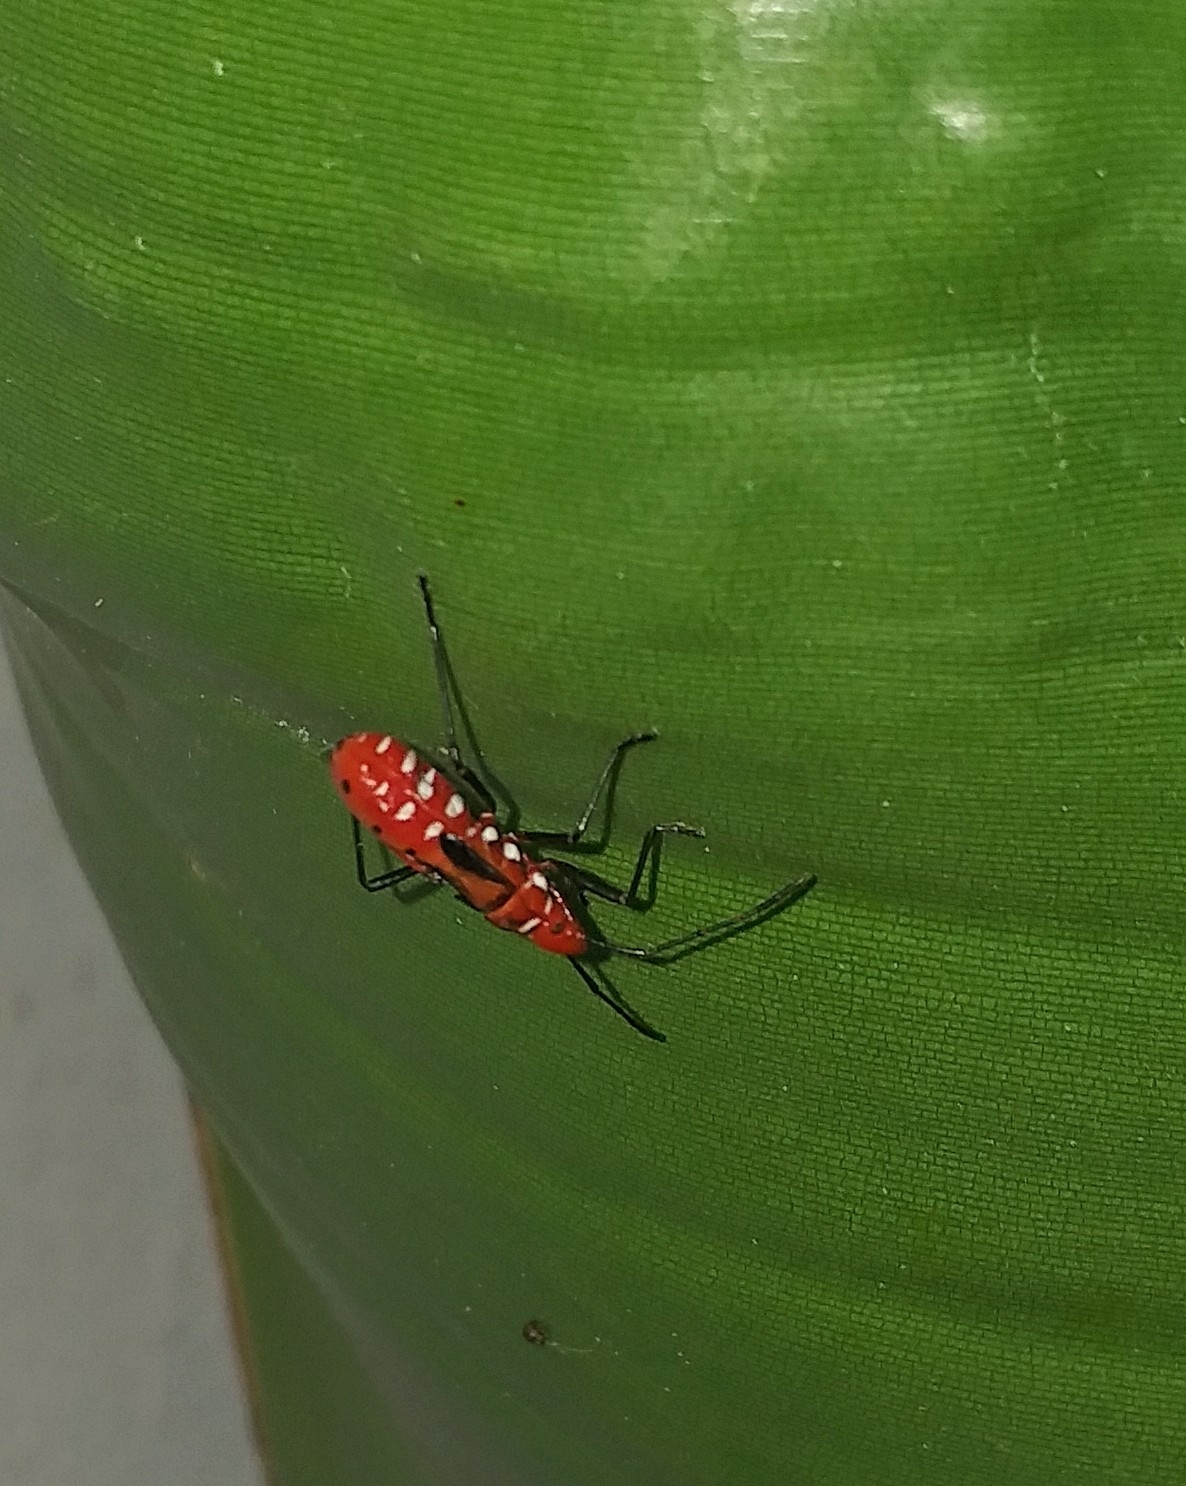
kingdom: Animalia
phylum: Arthropoda
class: Insecta
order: Hemiptera
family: Pyrrhocoridae
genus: Dysdercus
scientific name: Dysdercus cingulatus
